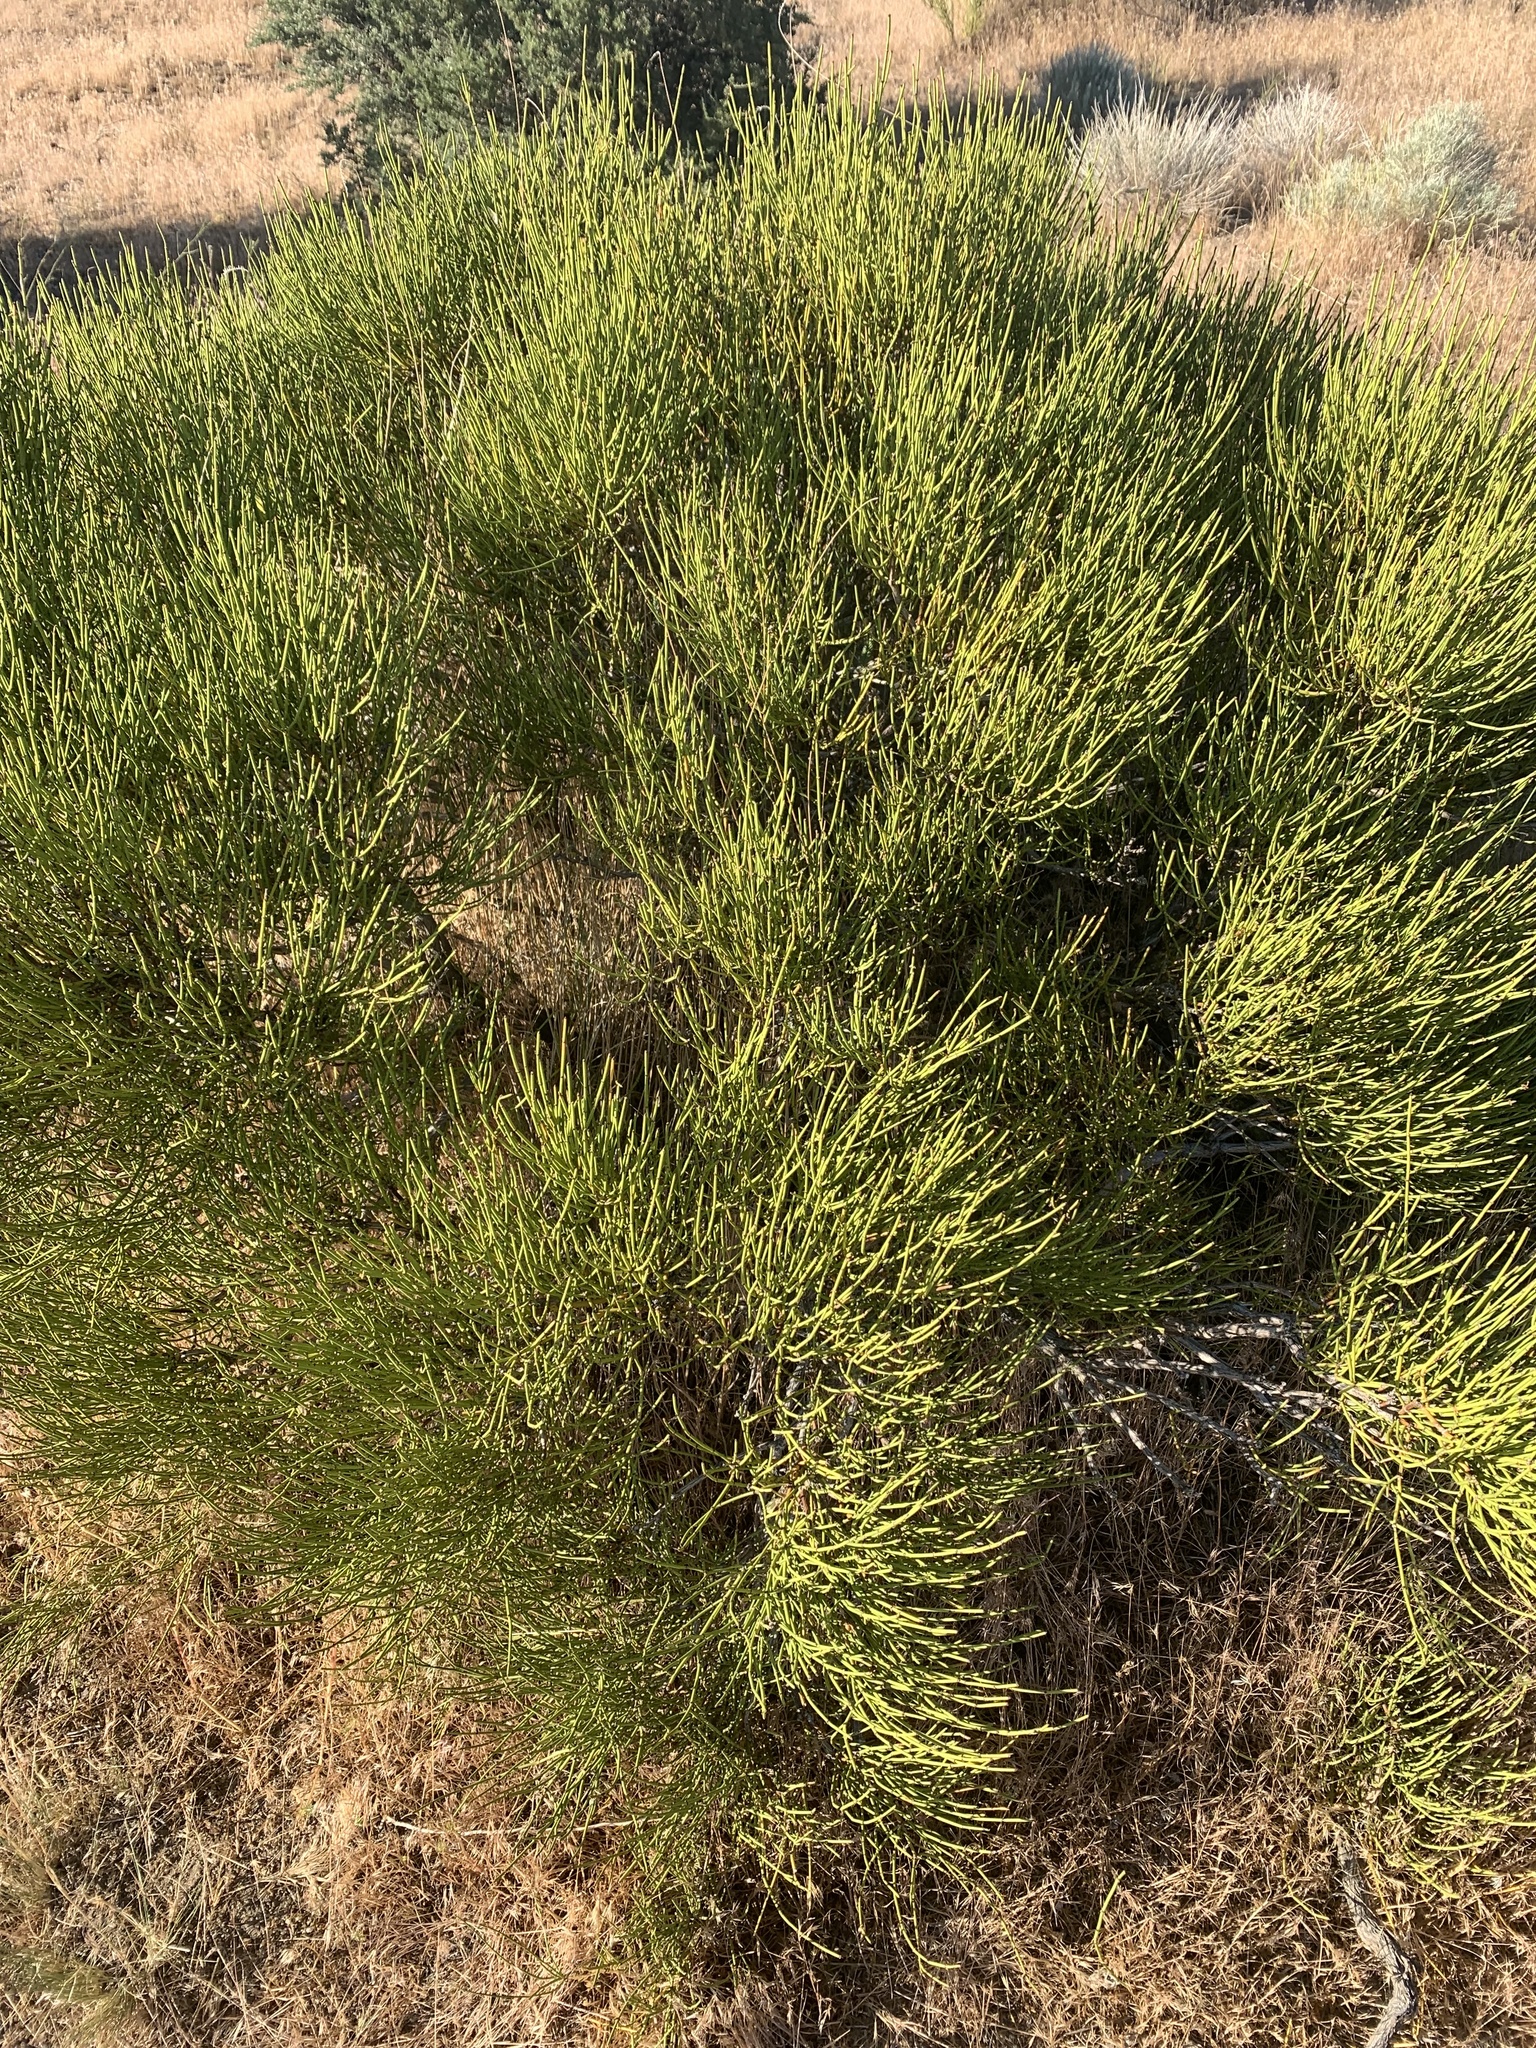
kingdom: Plantae
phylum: Tracheophyta
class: Gnetopsida
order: Ephedrales
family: Ephedraceae
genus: Ephedra
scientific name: Ephedra viridis
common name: Green ephedra
